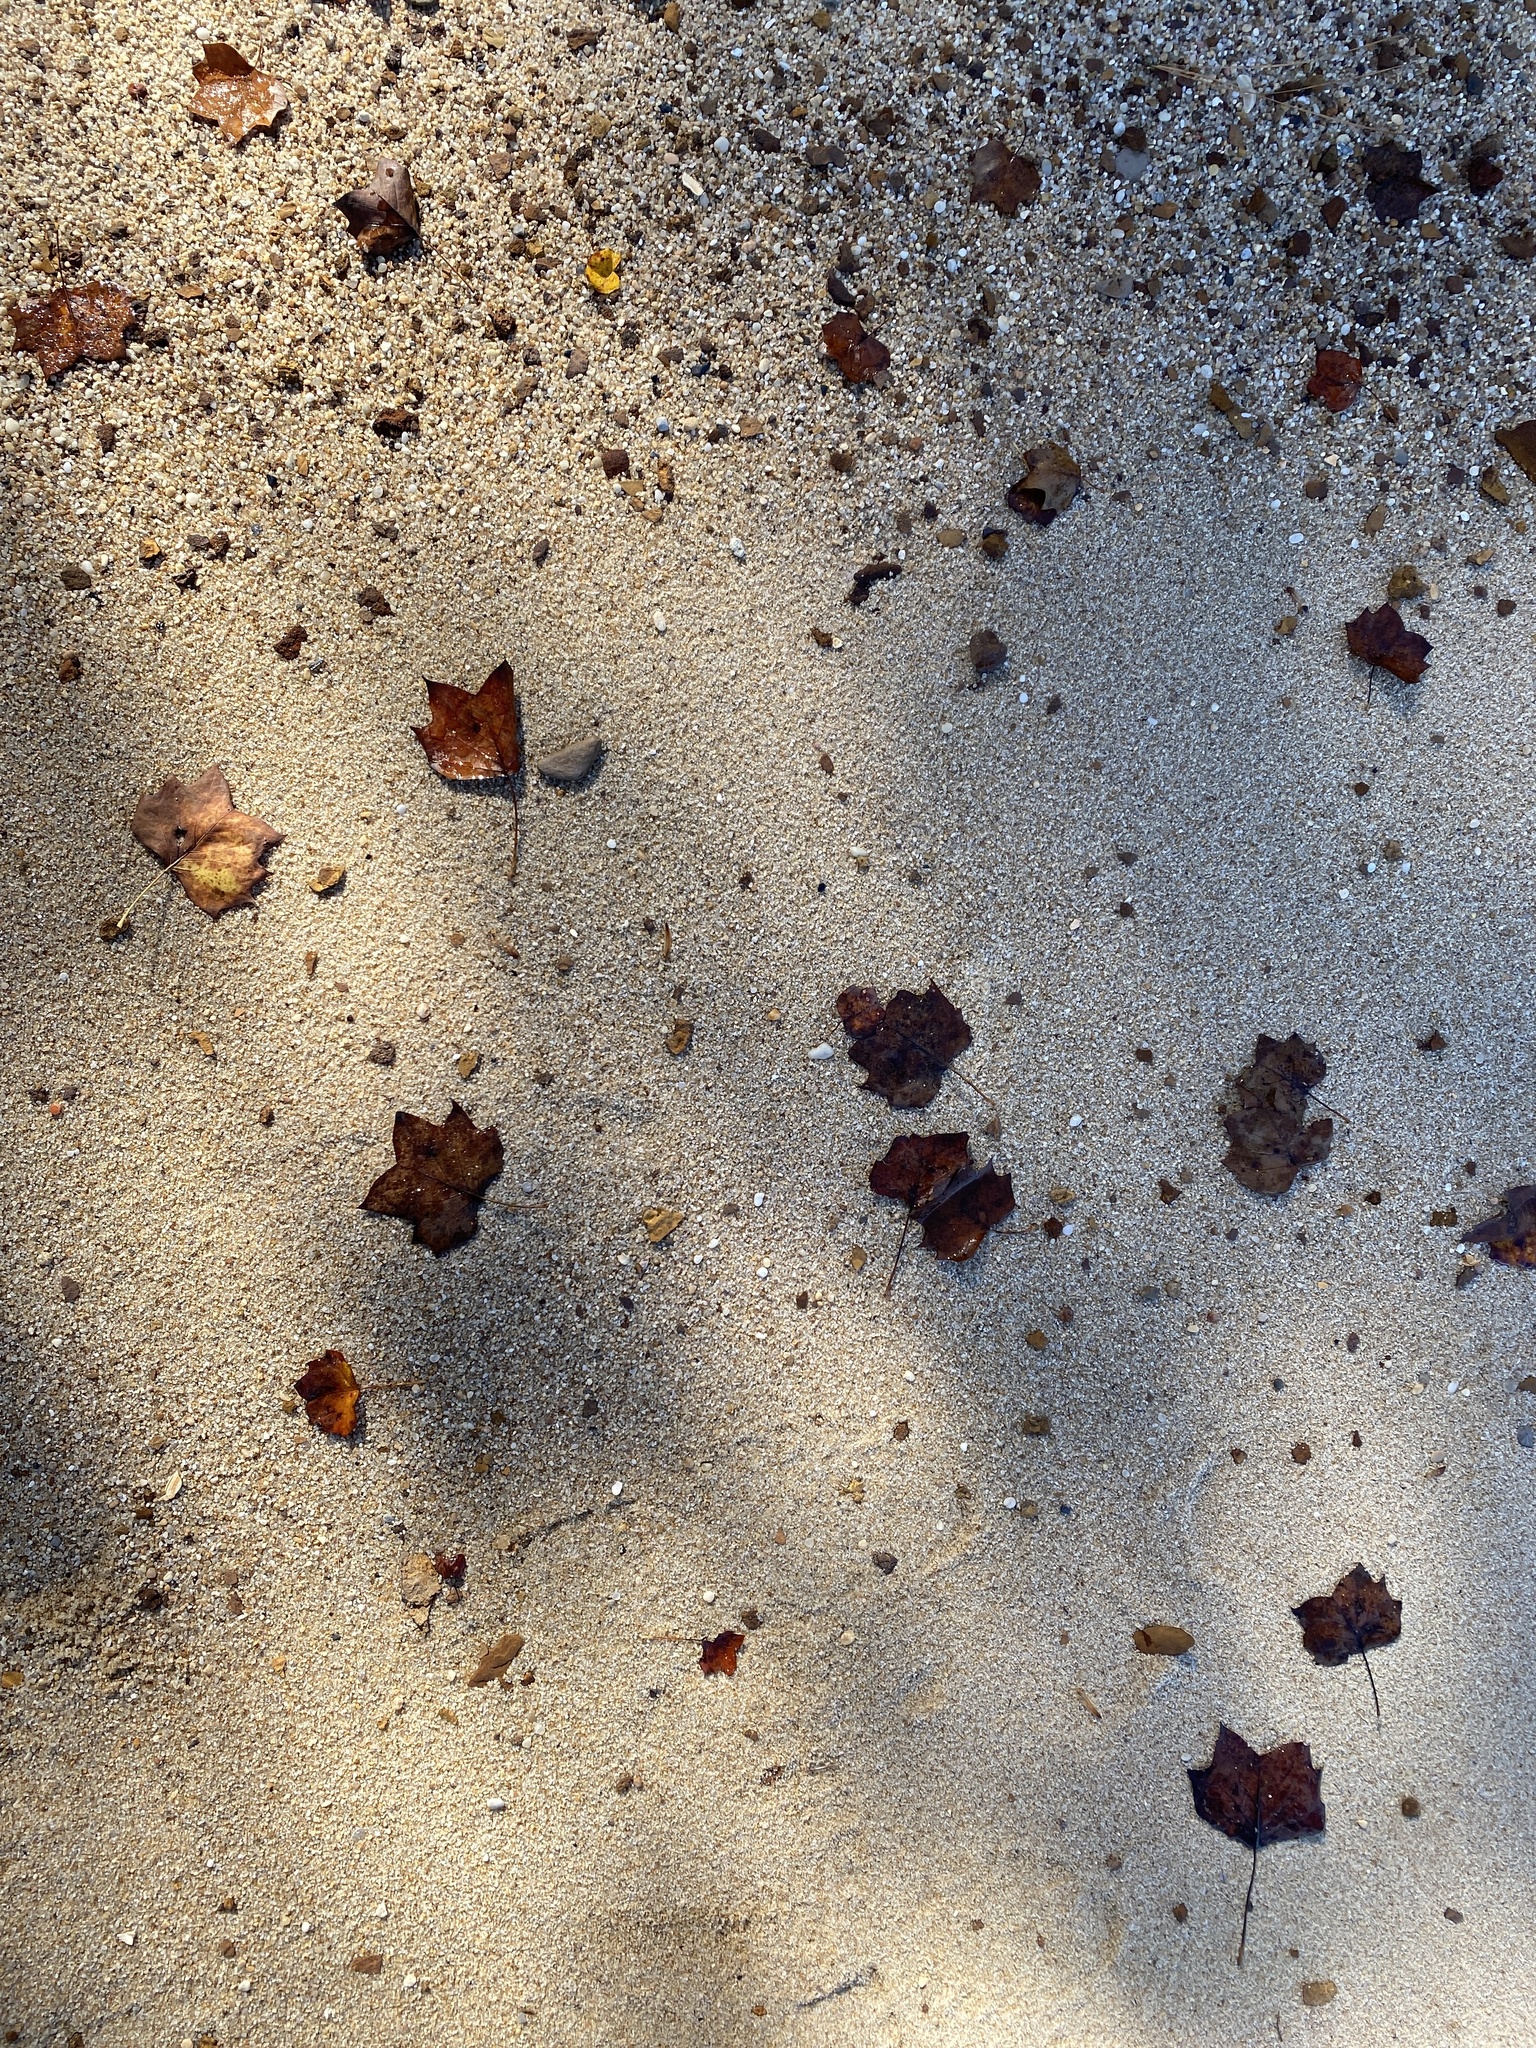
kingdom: Plantae
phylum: Tracheophyta
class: Magnoliopsida
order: Magnoliales
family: Magnoliaceae
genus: Liriodendron
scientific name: Liriodendron tulipifera
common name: Tulip tree
